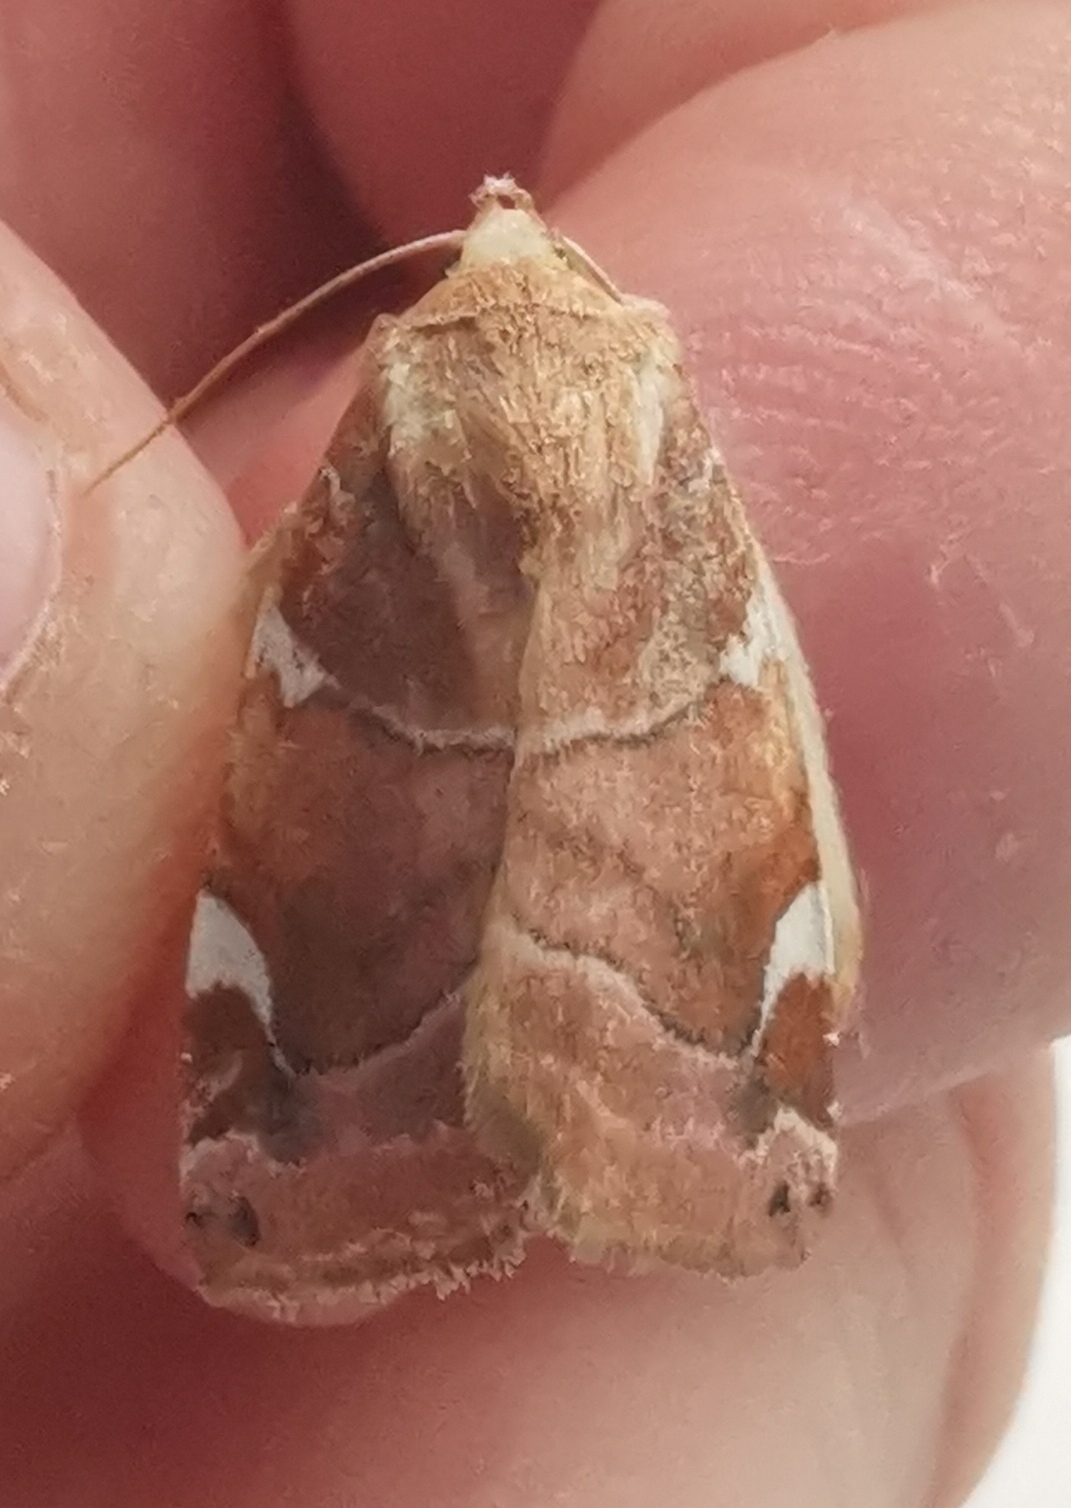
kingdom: Animalia
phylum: Arthropoda
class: Insecta
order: Lepidoptera
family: Noctuidae
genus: Cosmia
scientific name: Cosmia diffinis
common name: White-spotted pinion
